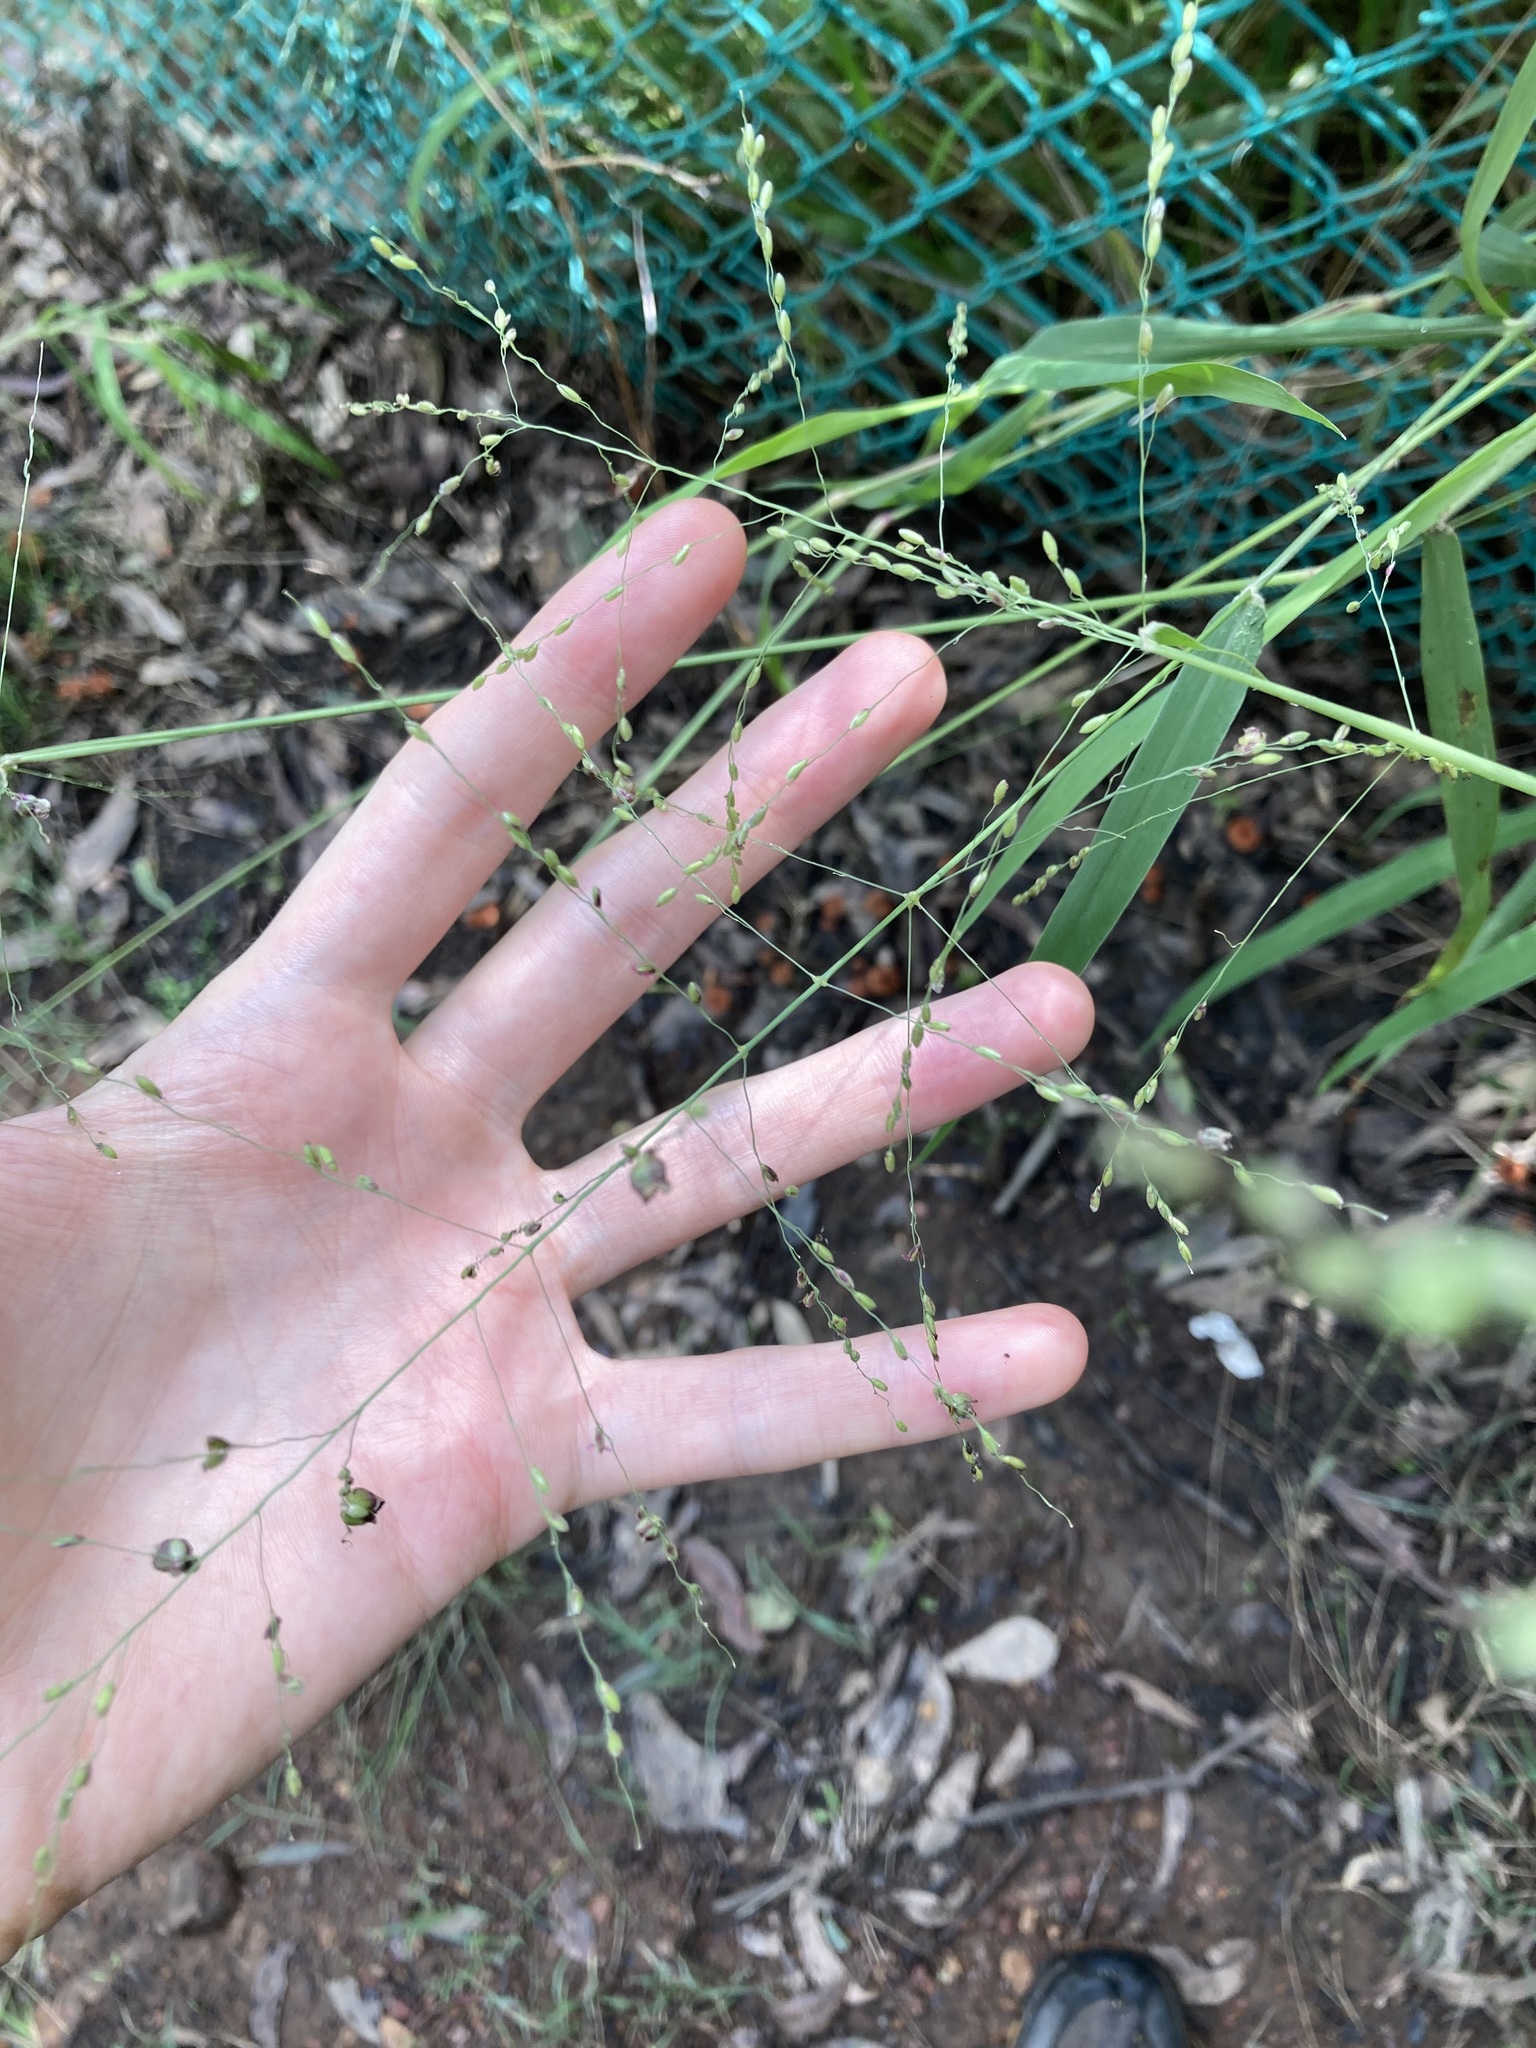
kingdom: Plantae
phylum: Tracheophyta
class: Liliopsida
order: Poales
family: Poaceae
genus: Megathyrsus
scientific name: Megathyrsus maximus
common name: Guineagrass
